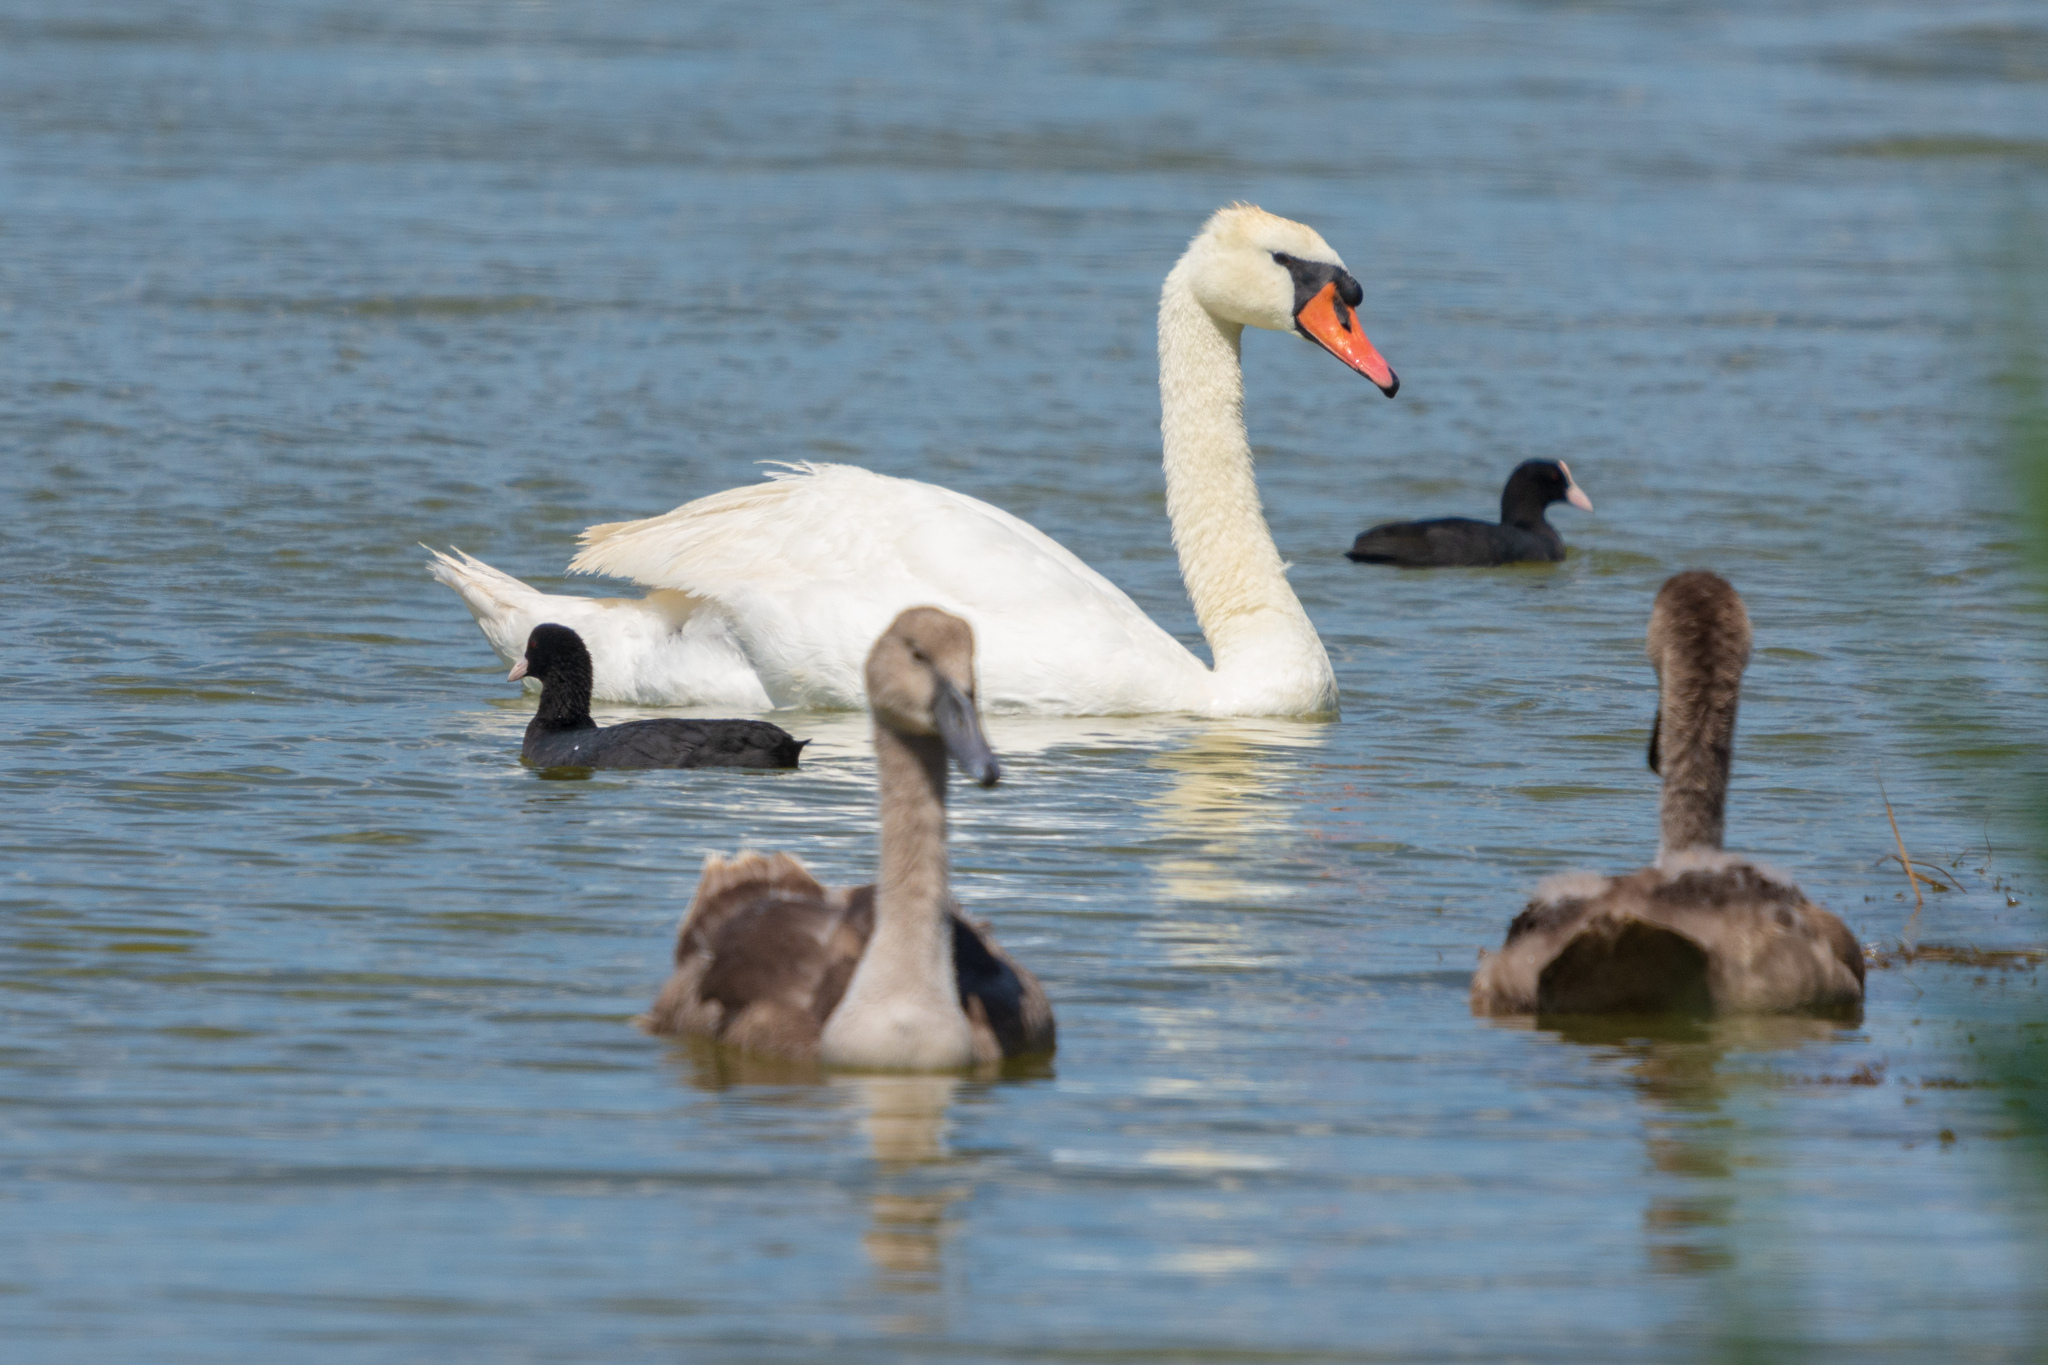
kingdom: Animalia
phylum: Chordata
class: Aves
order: Anseriformes
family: Anatidae
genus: Cygnus
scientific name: Cygnus olor
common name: Mute swan
